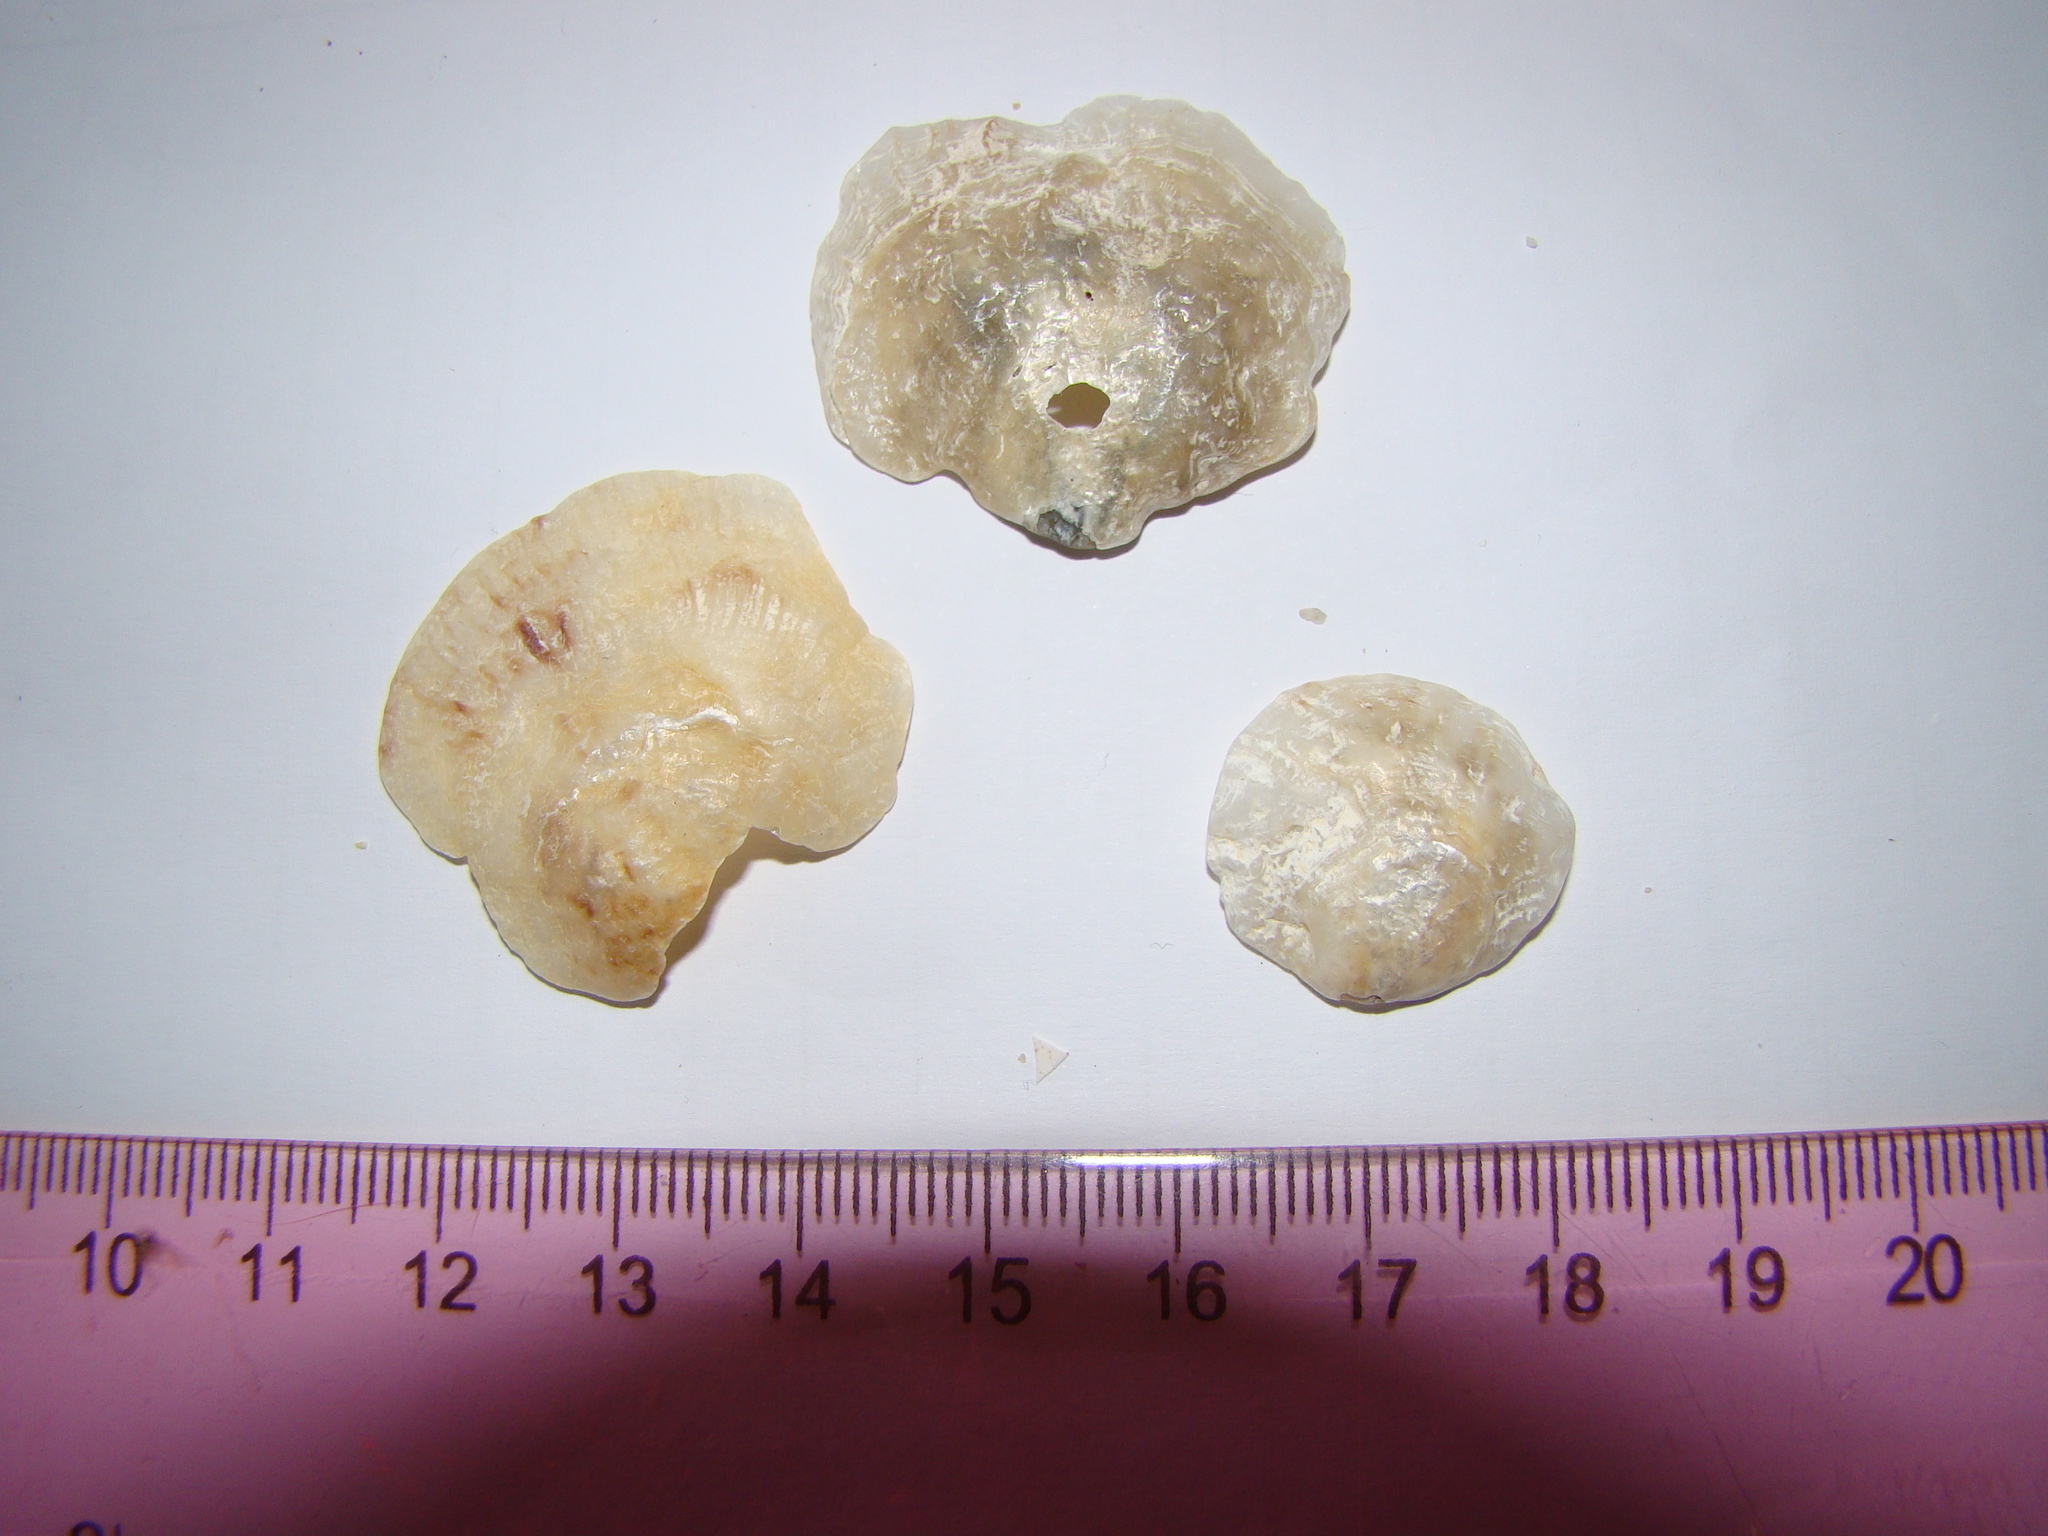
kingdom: Animalia
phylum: Mollusca
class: Bivalvia
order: Pectinida
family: Anomiidae
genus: Anomia
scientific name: Anomia trigonopsis
